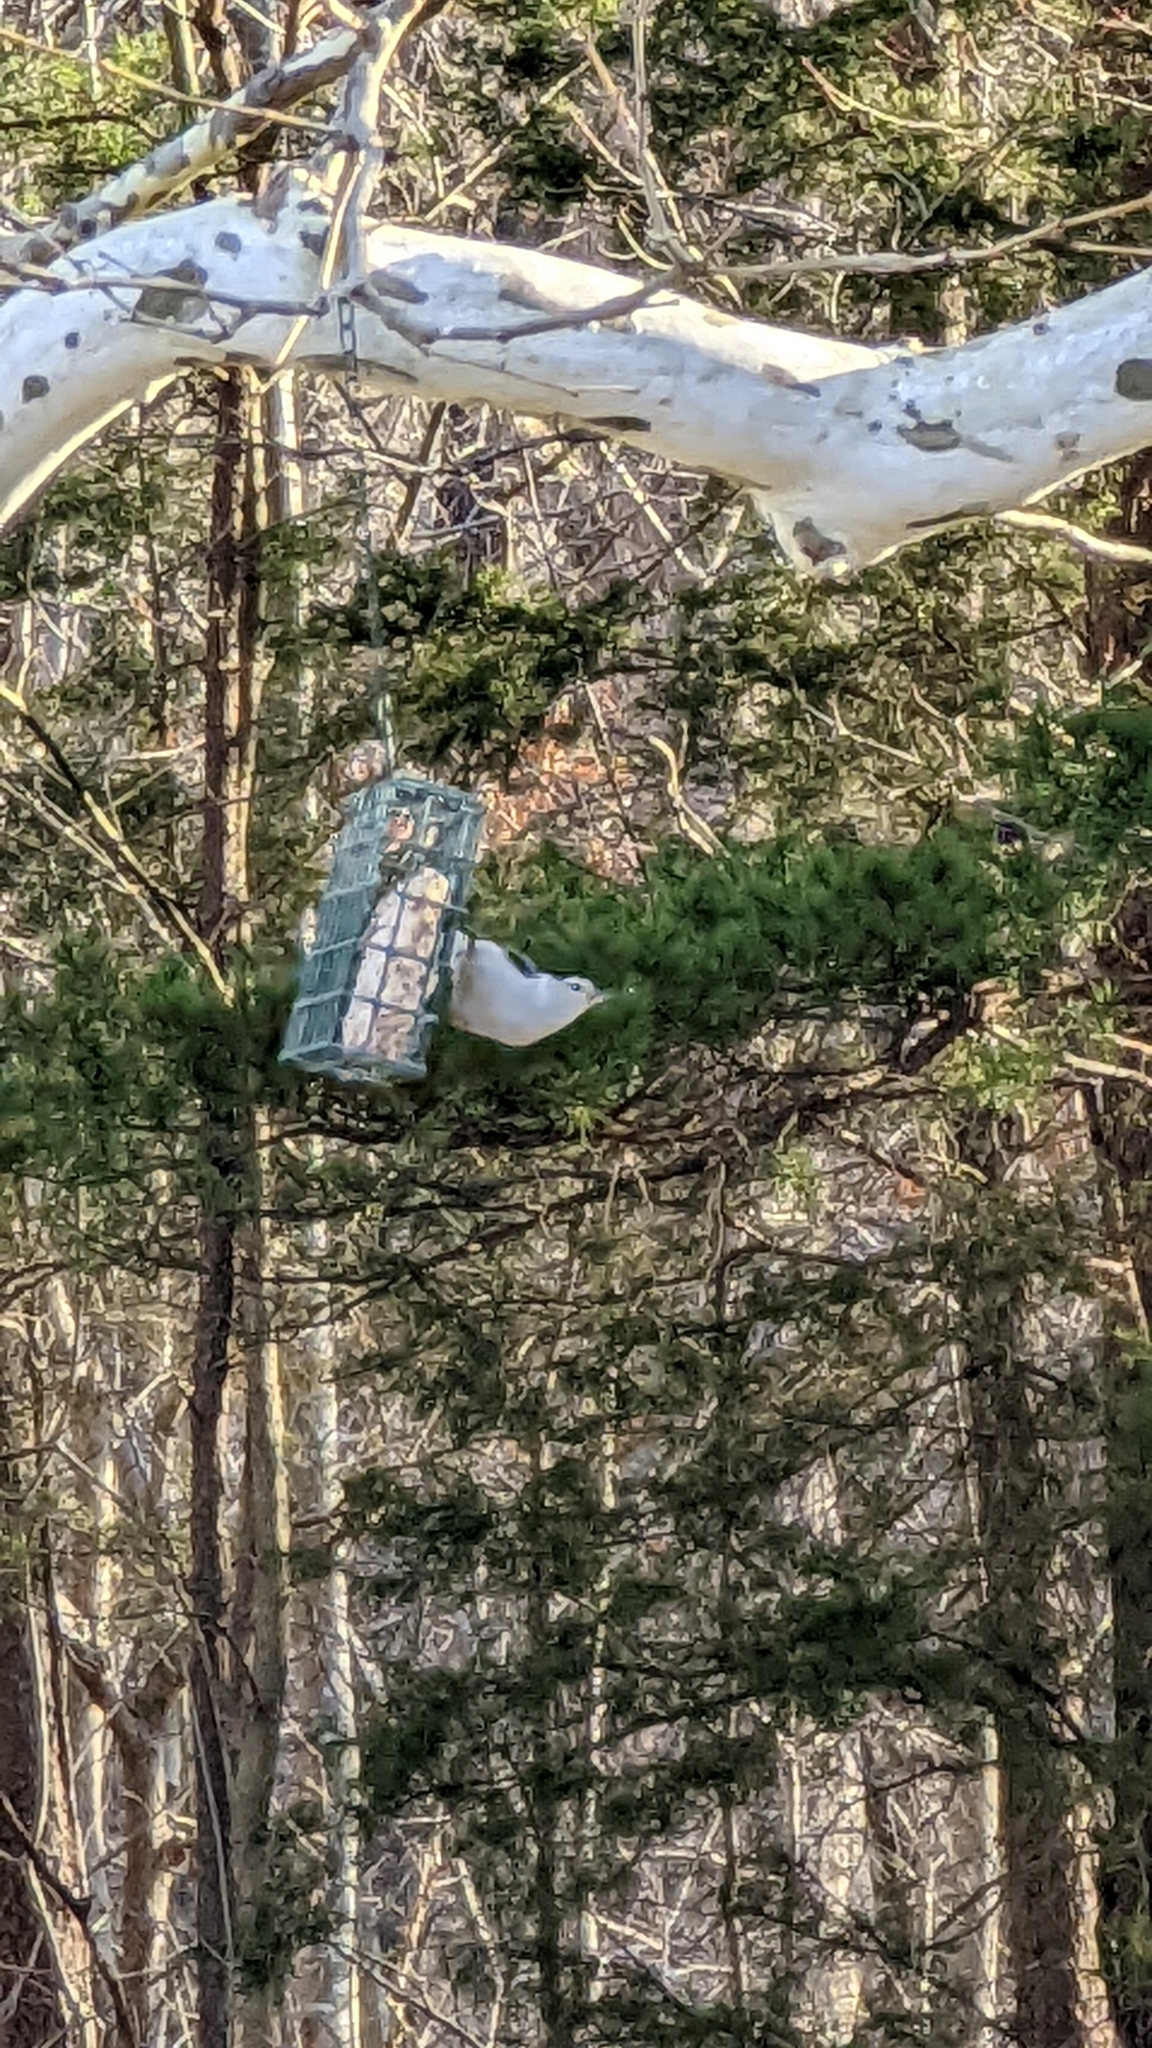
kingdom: Animalia
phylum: Chordata
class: Aves
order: Passeriformes
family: Sittidae
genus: Sitta
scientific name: Sitta carolinensis
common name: White-breasted nuthatch
